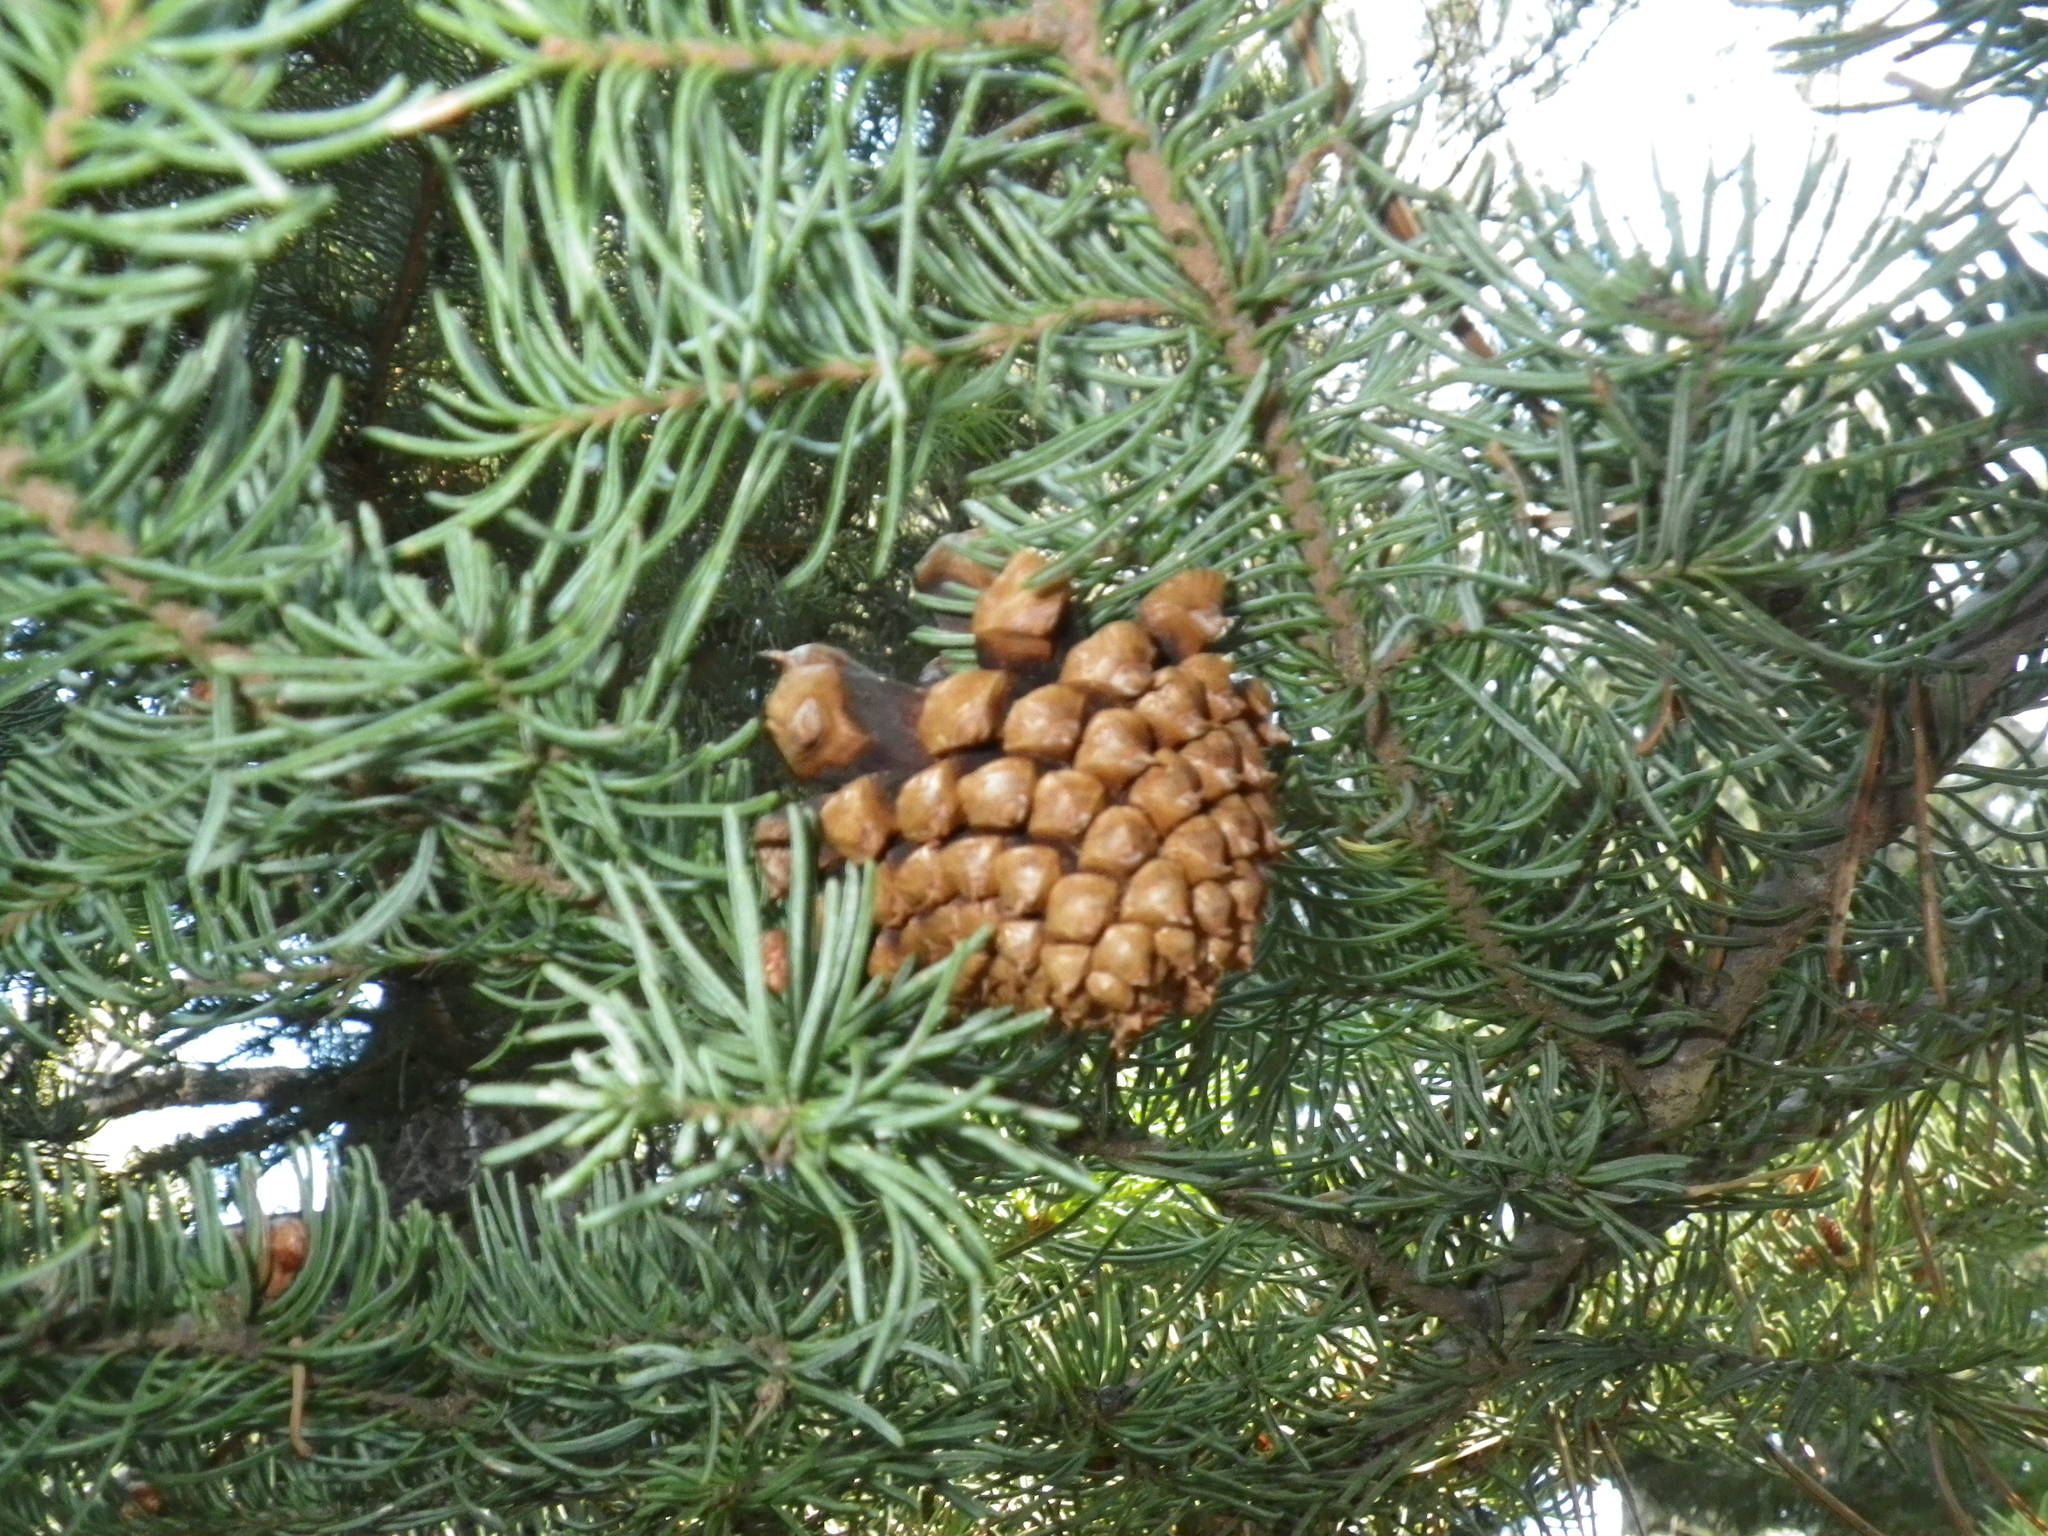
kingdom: Plantae
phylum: Tracheophyta
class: Pinopsida
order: Pinales
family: Pinaceae
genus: Abies
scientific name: Abies magnifica bis
